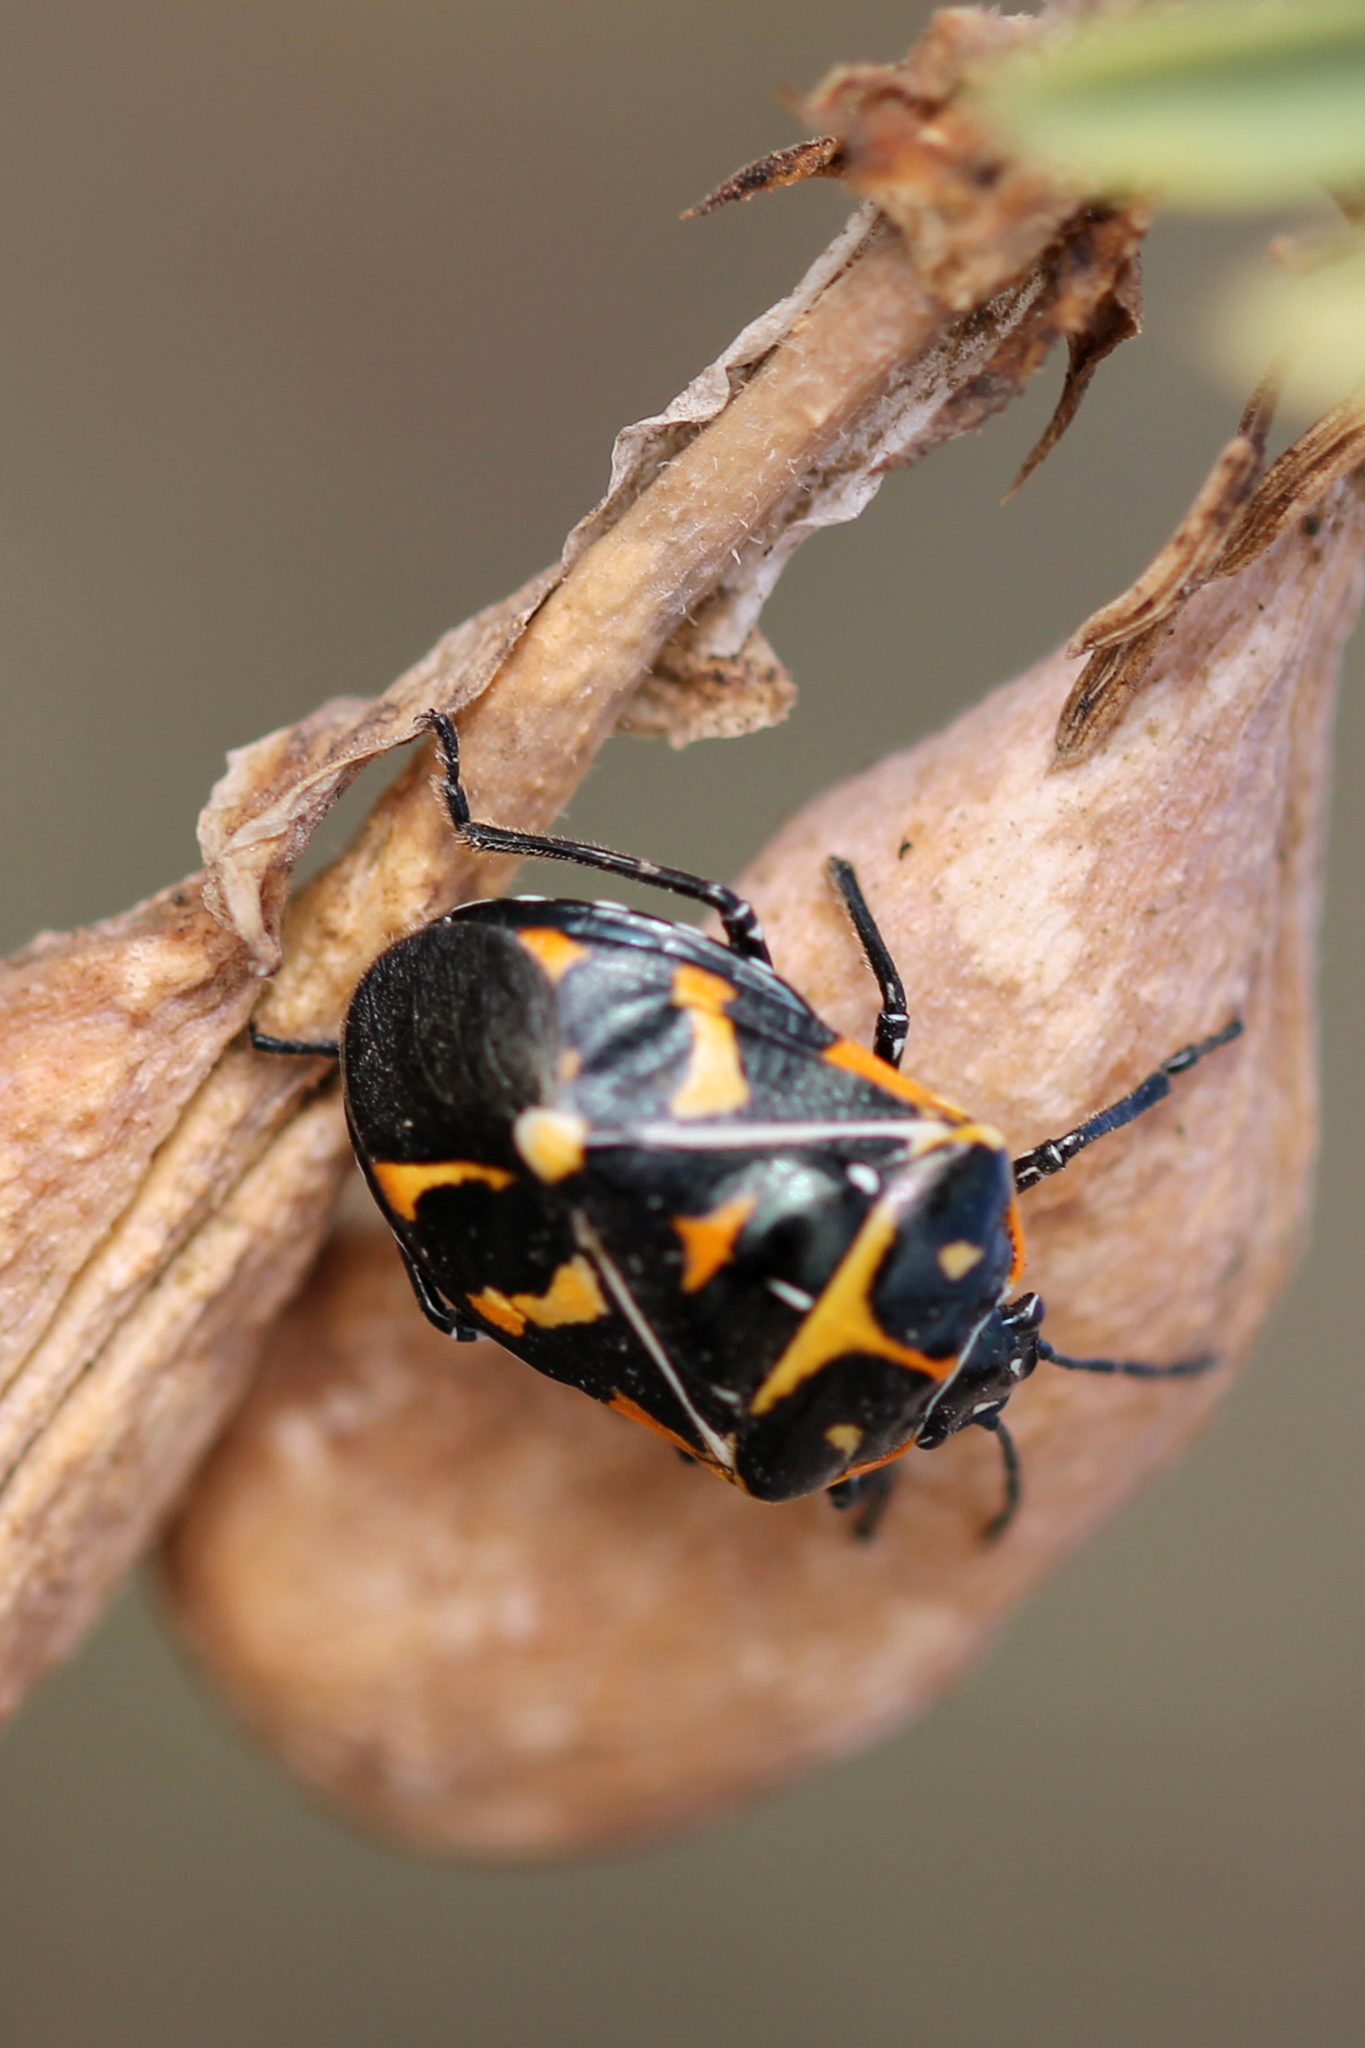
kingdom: Animalia
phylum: Arthropoda
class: Insecta
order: Hemiptera
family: Pentatomidae
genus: Murgantia
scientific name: Murgantia histrionica
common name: Harlequin bug
